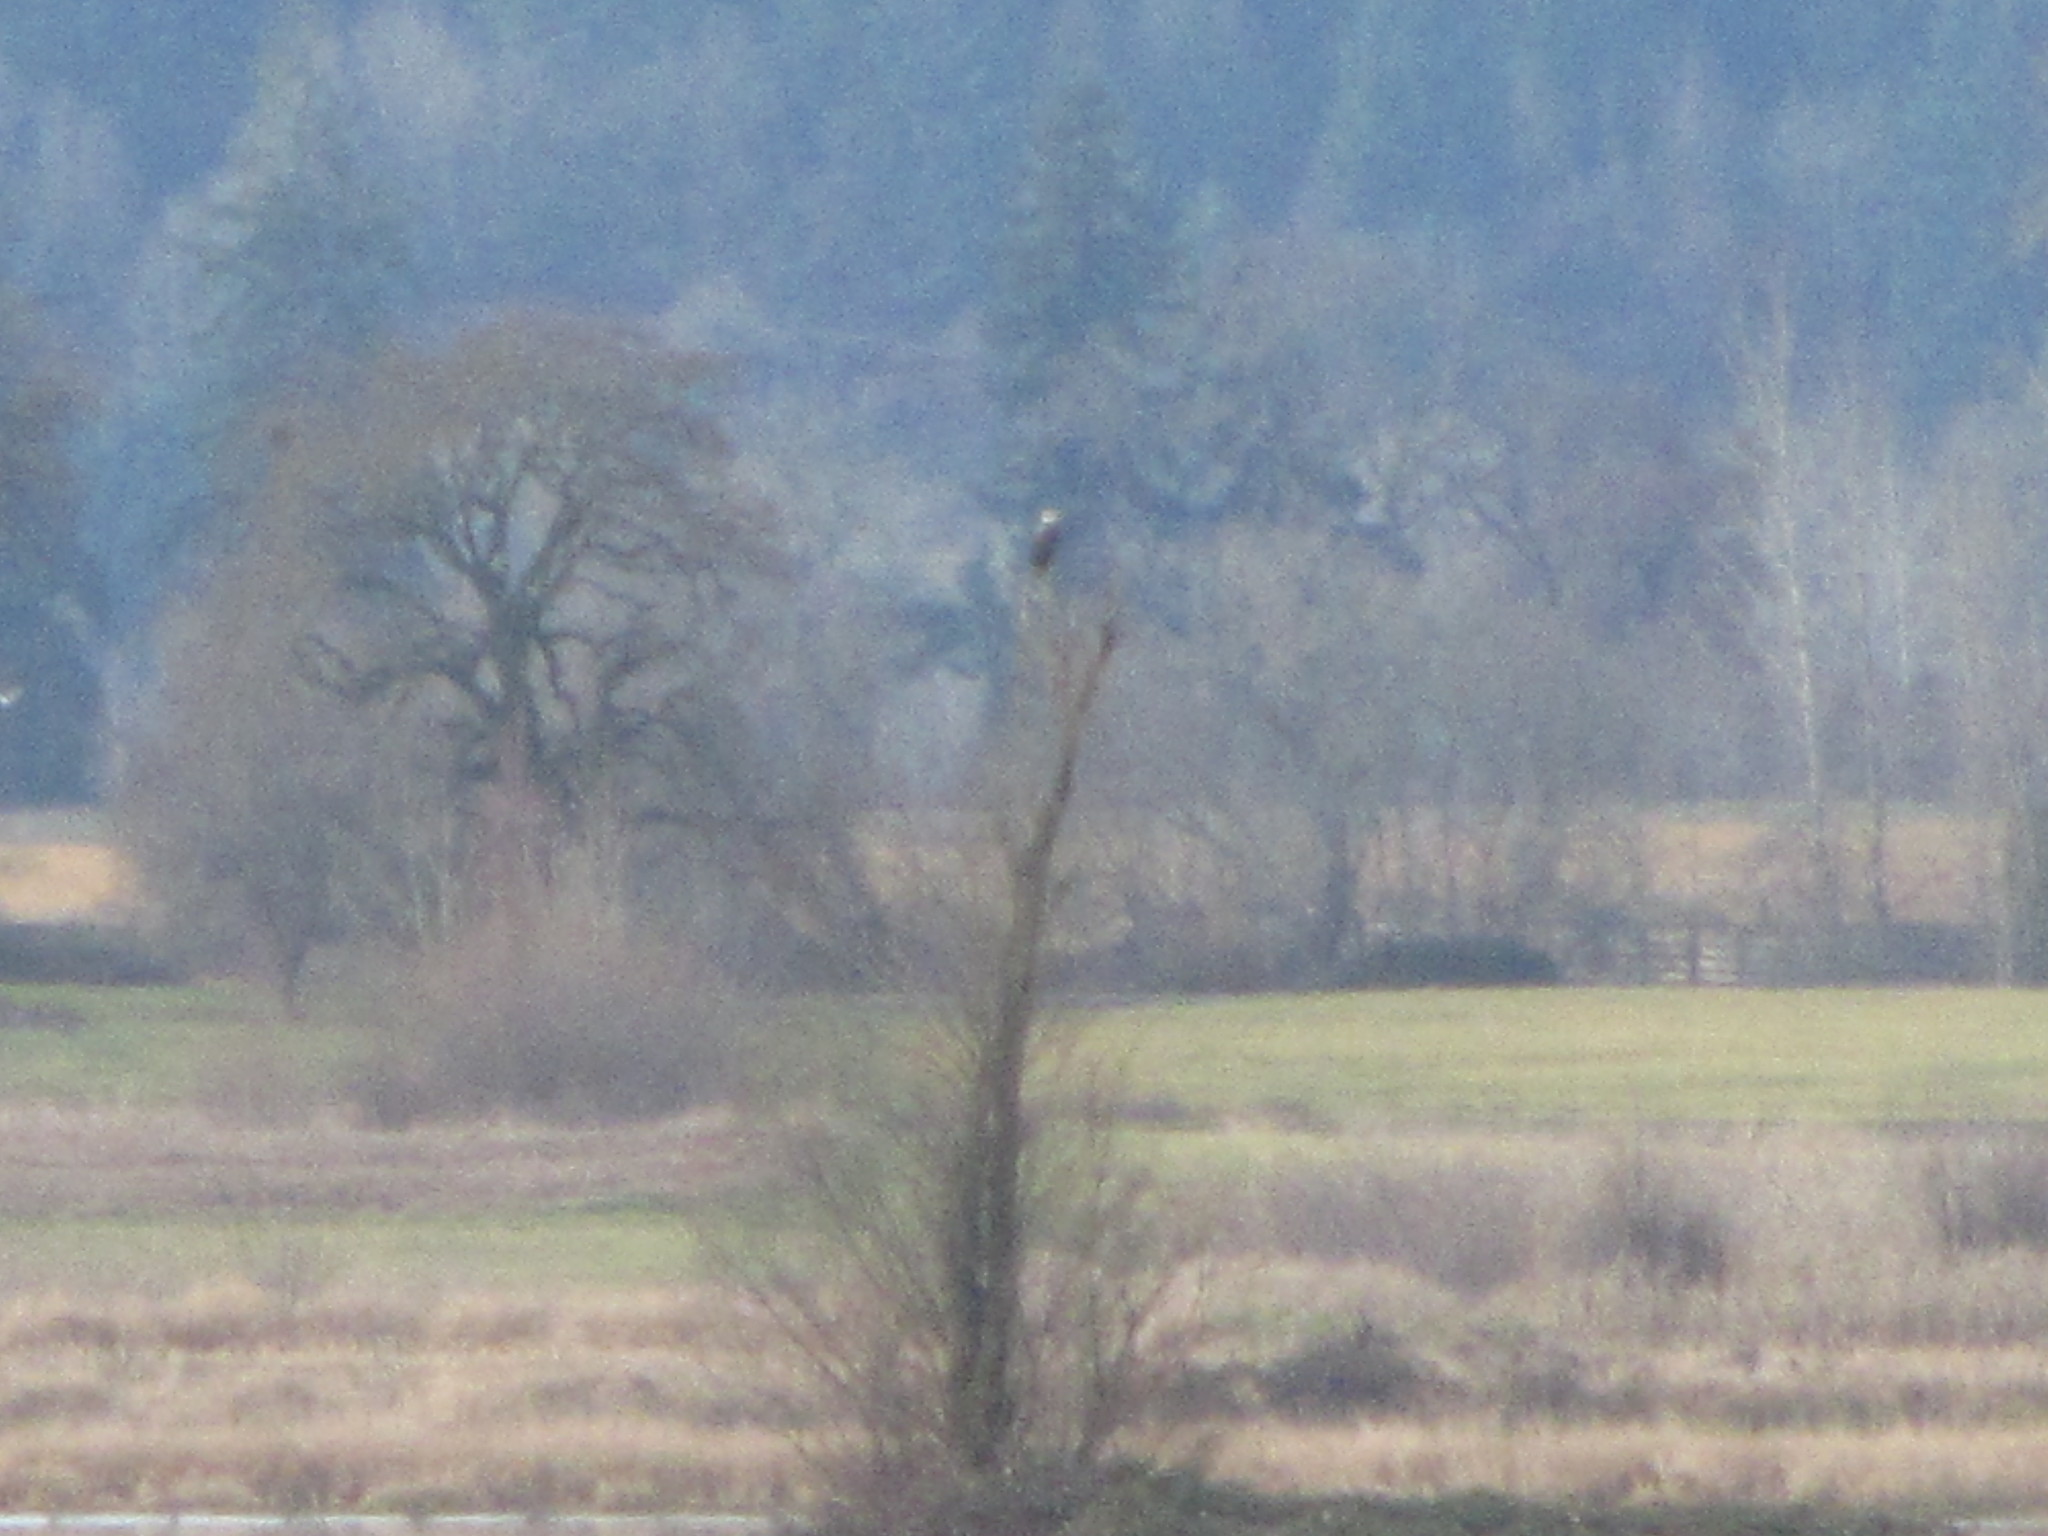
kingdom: Animalia
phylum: Chordata
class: Aves
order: Accipitriformes
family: Accipitridae
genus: Haliaeetus
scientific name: Haliaeetus leucocephalus
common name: Bald eagle
